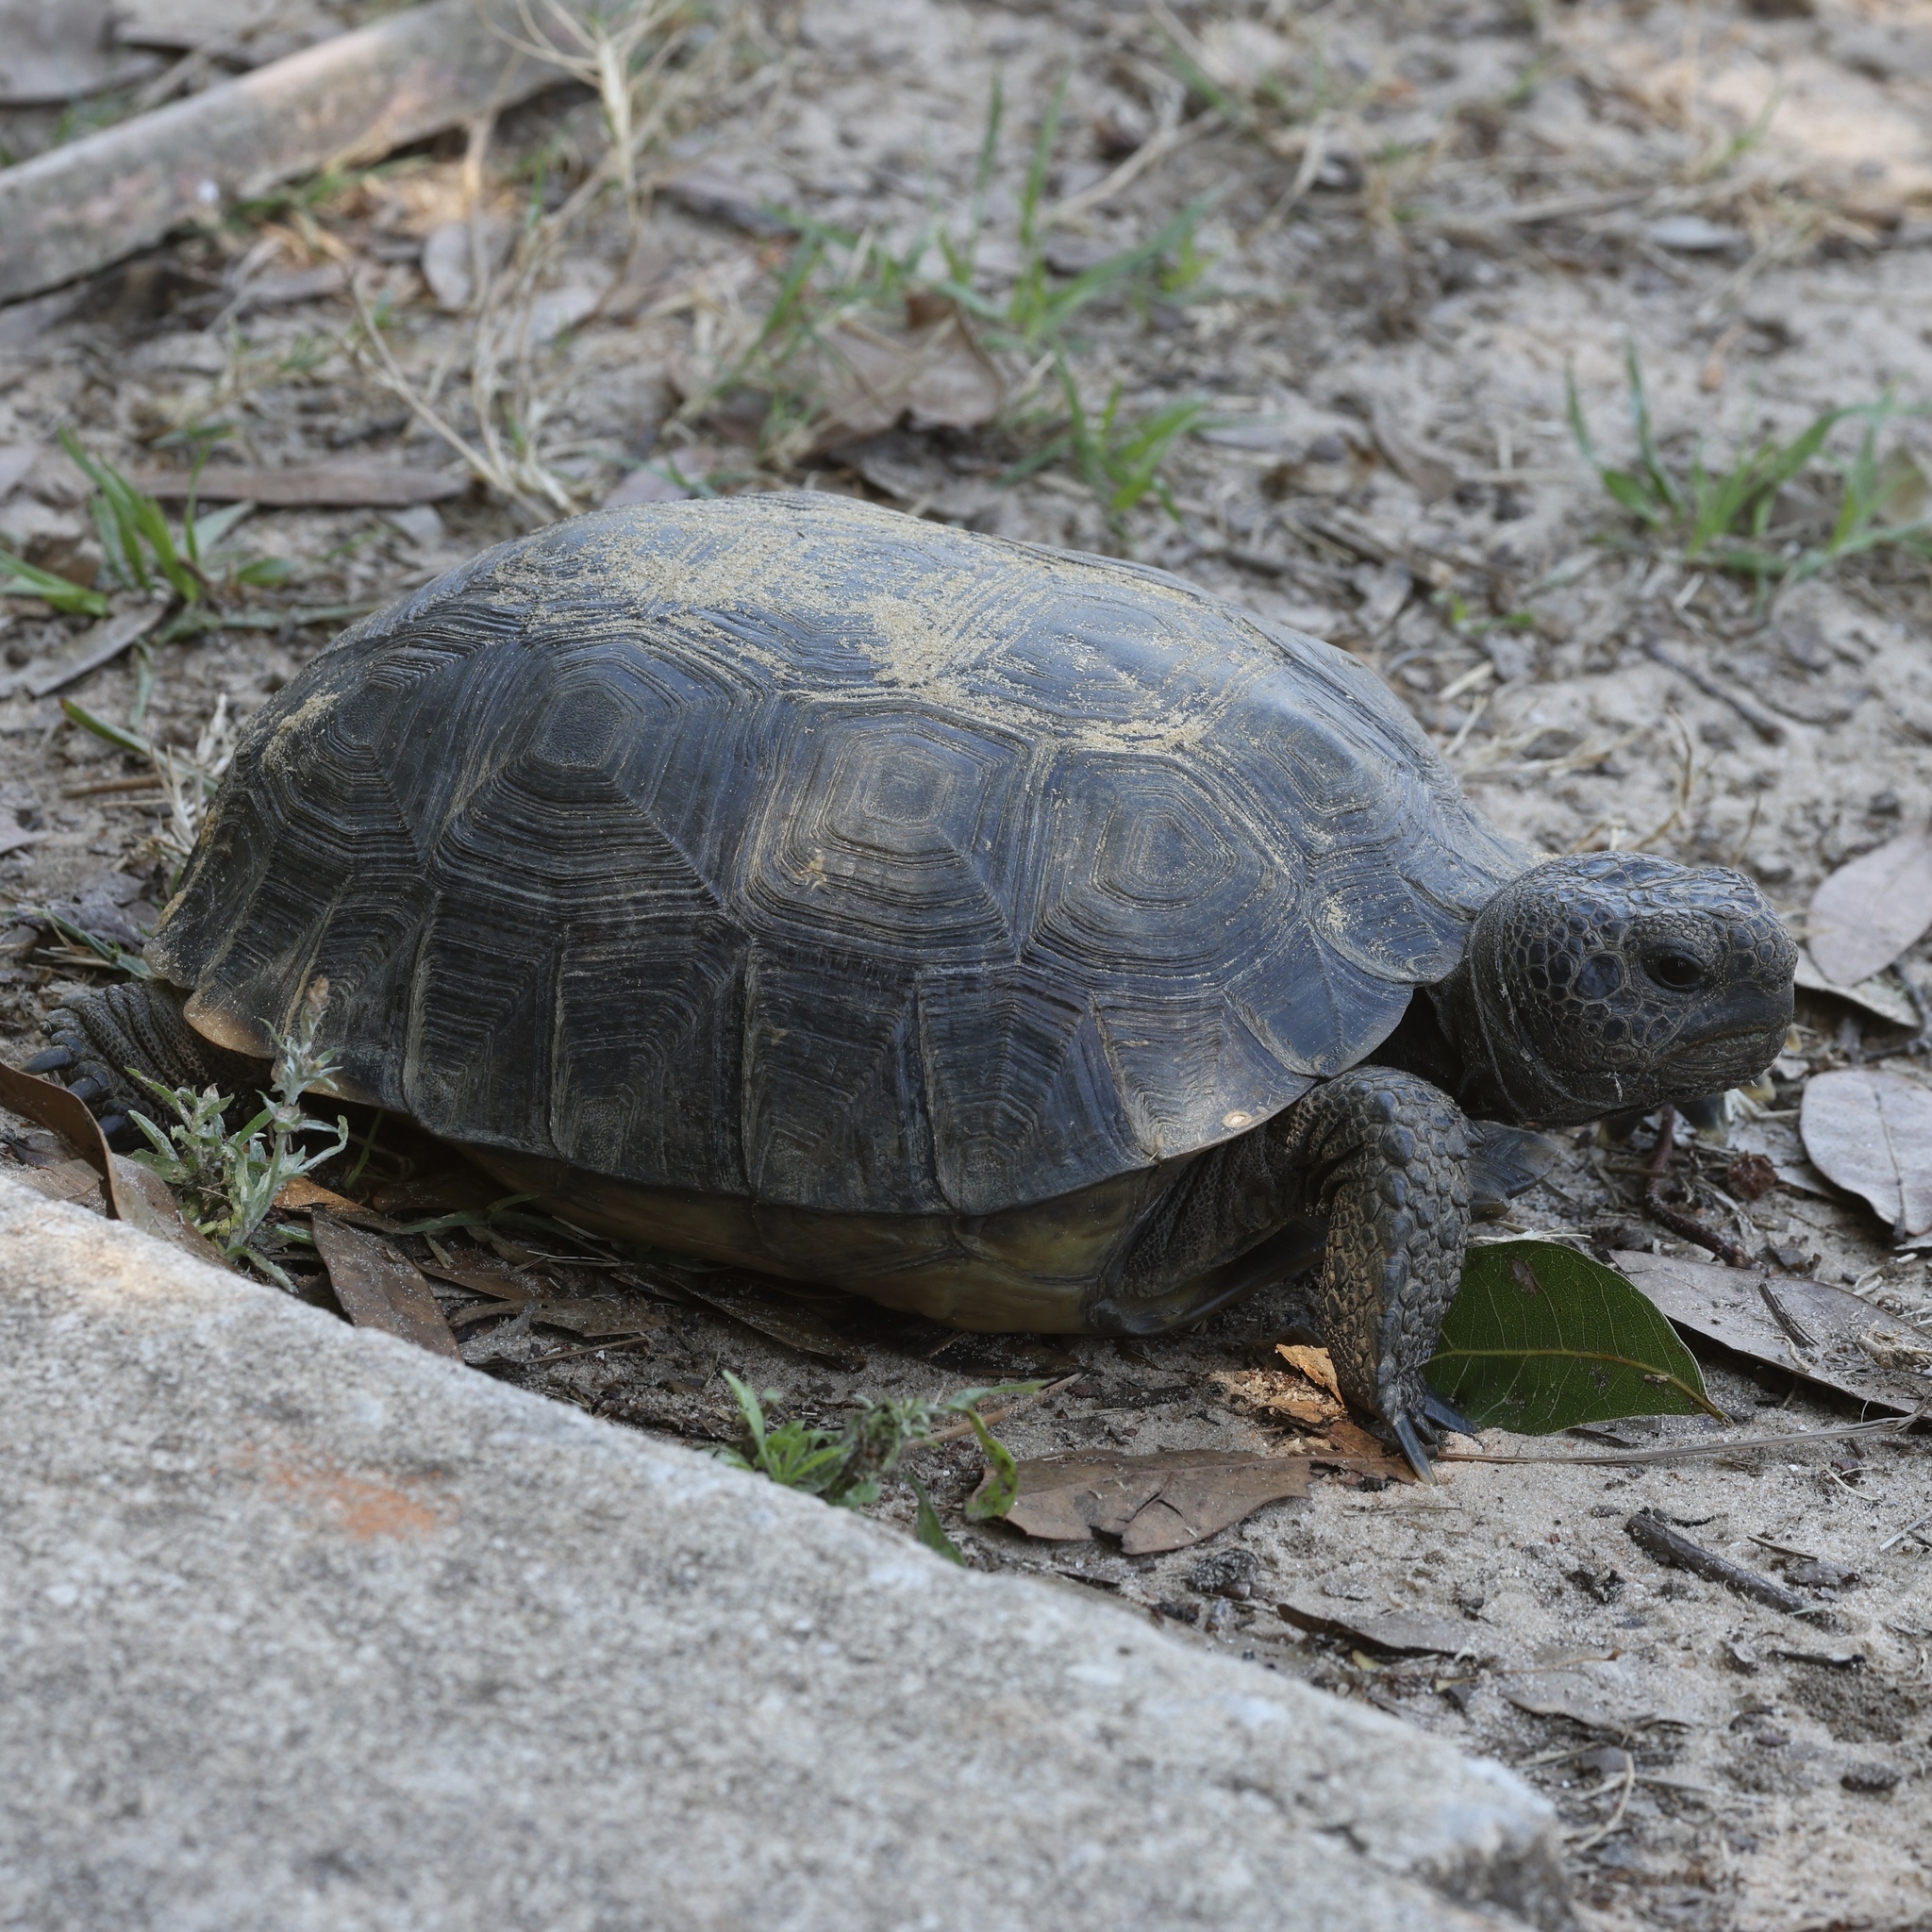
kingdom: Animalia
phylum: Chordata
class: Testudines
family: Testudinidae
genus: Gopherus
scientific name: Gopherus polyphemus
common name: Florida gopher tortoise
